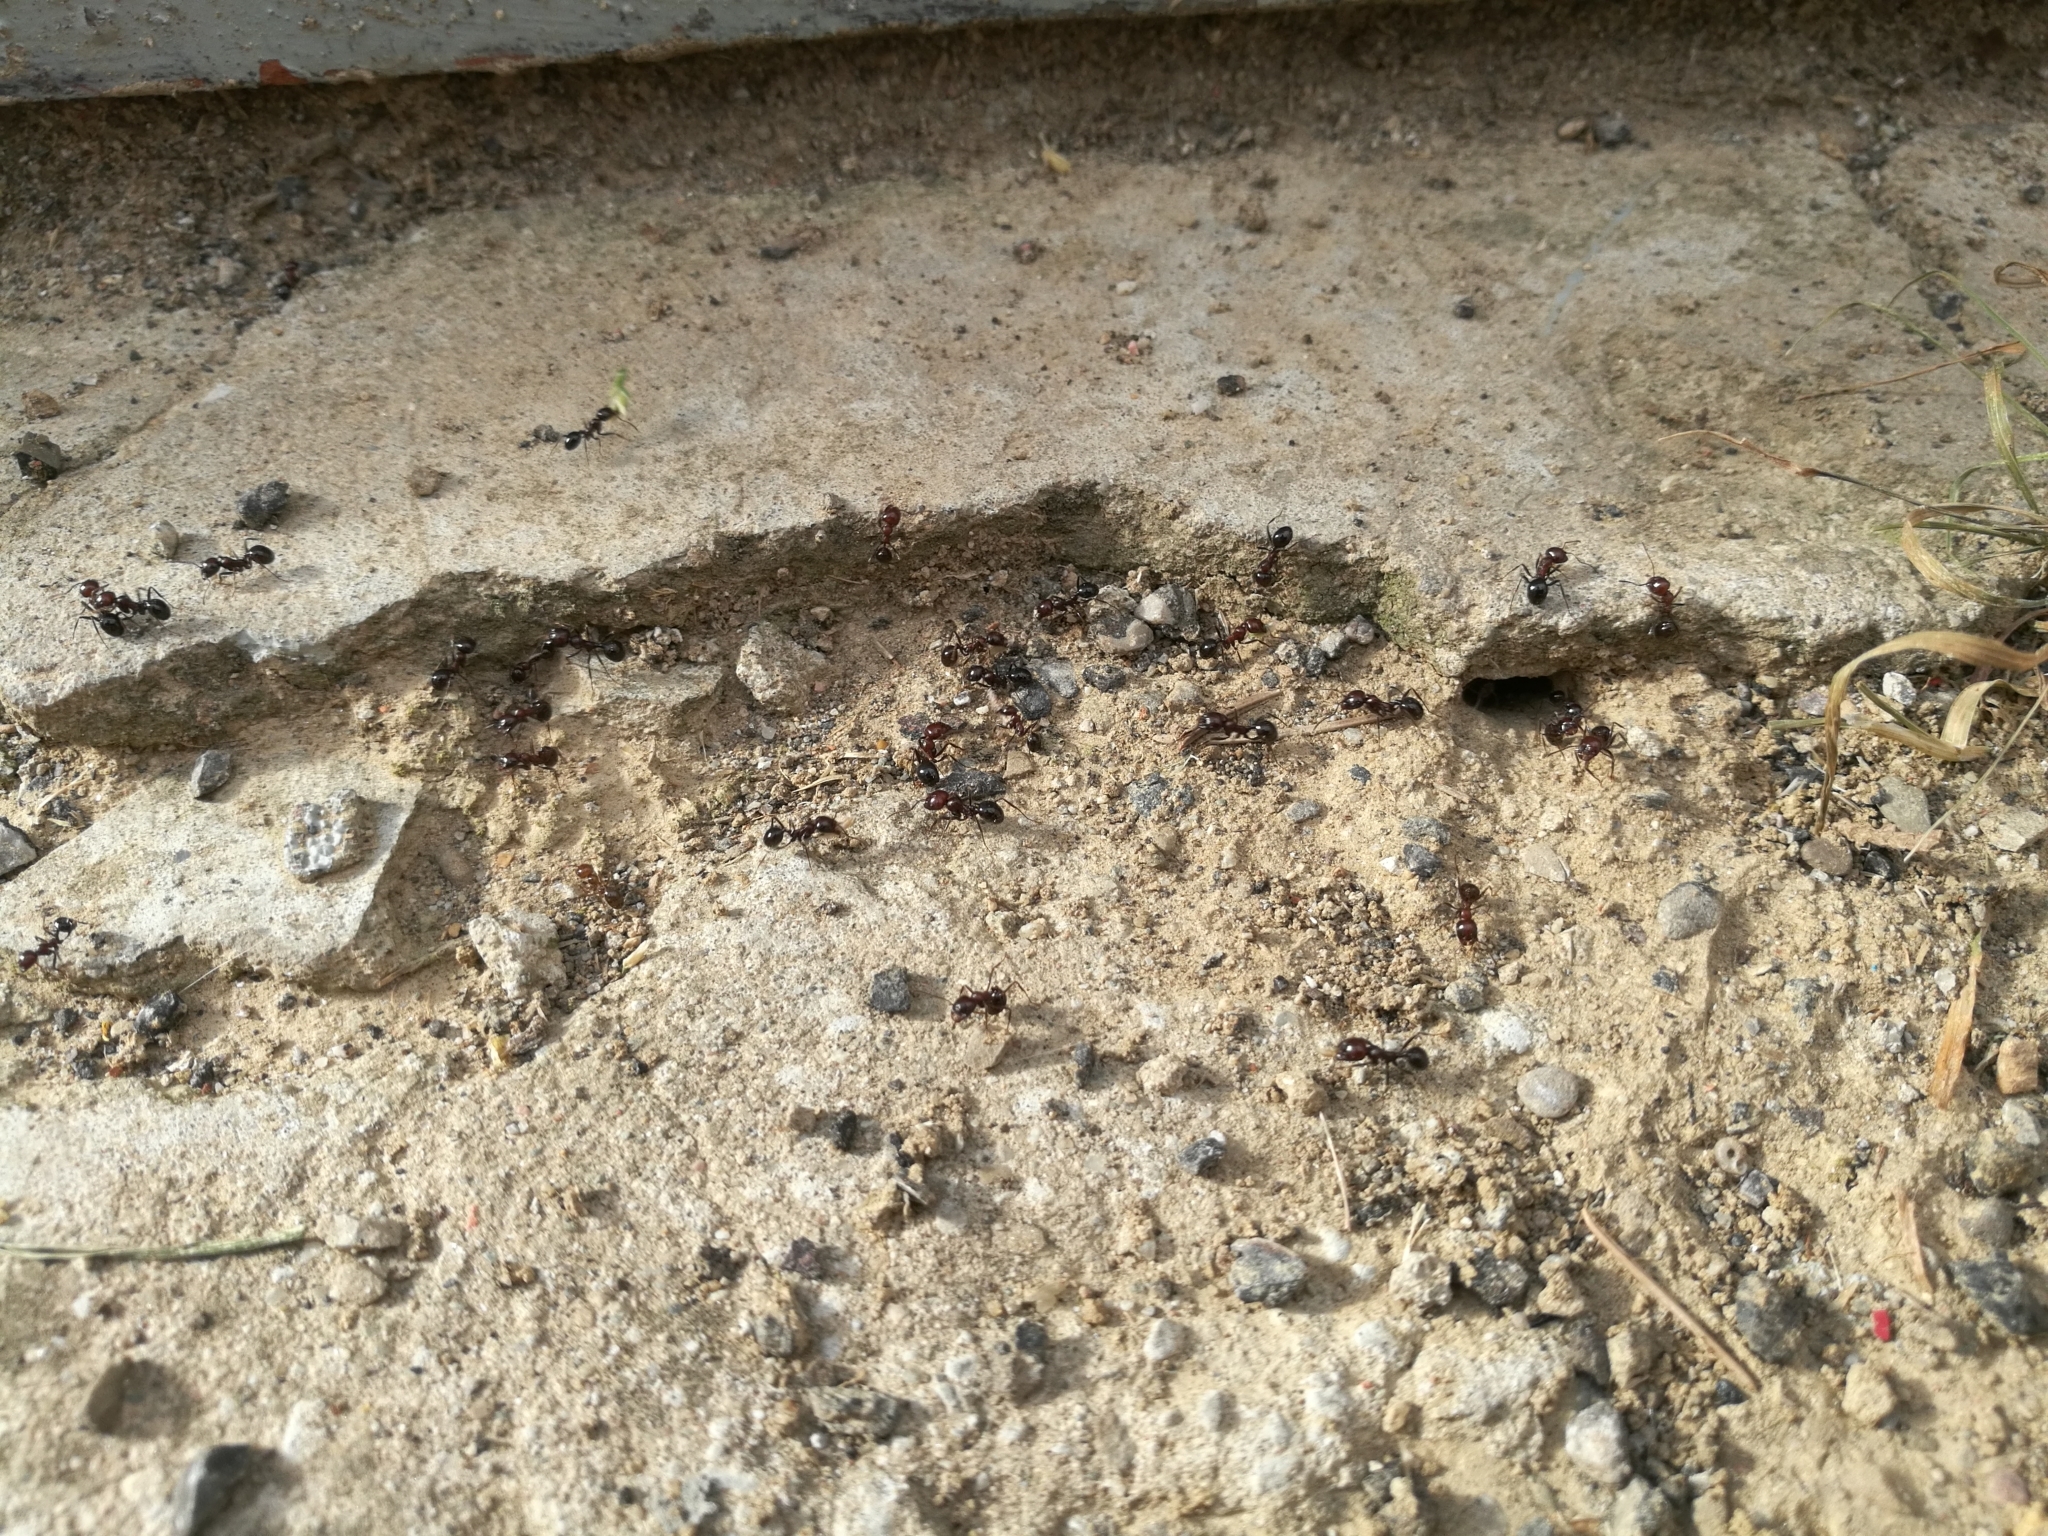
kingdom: Animalia
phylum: Arthropoda
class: Insecta
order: Hymenoptera
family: Formicidae
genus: Messor
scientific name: Messor minor
